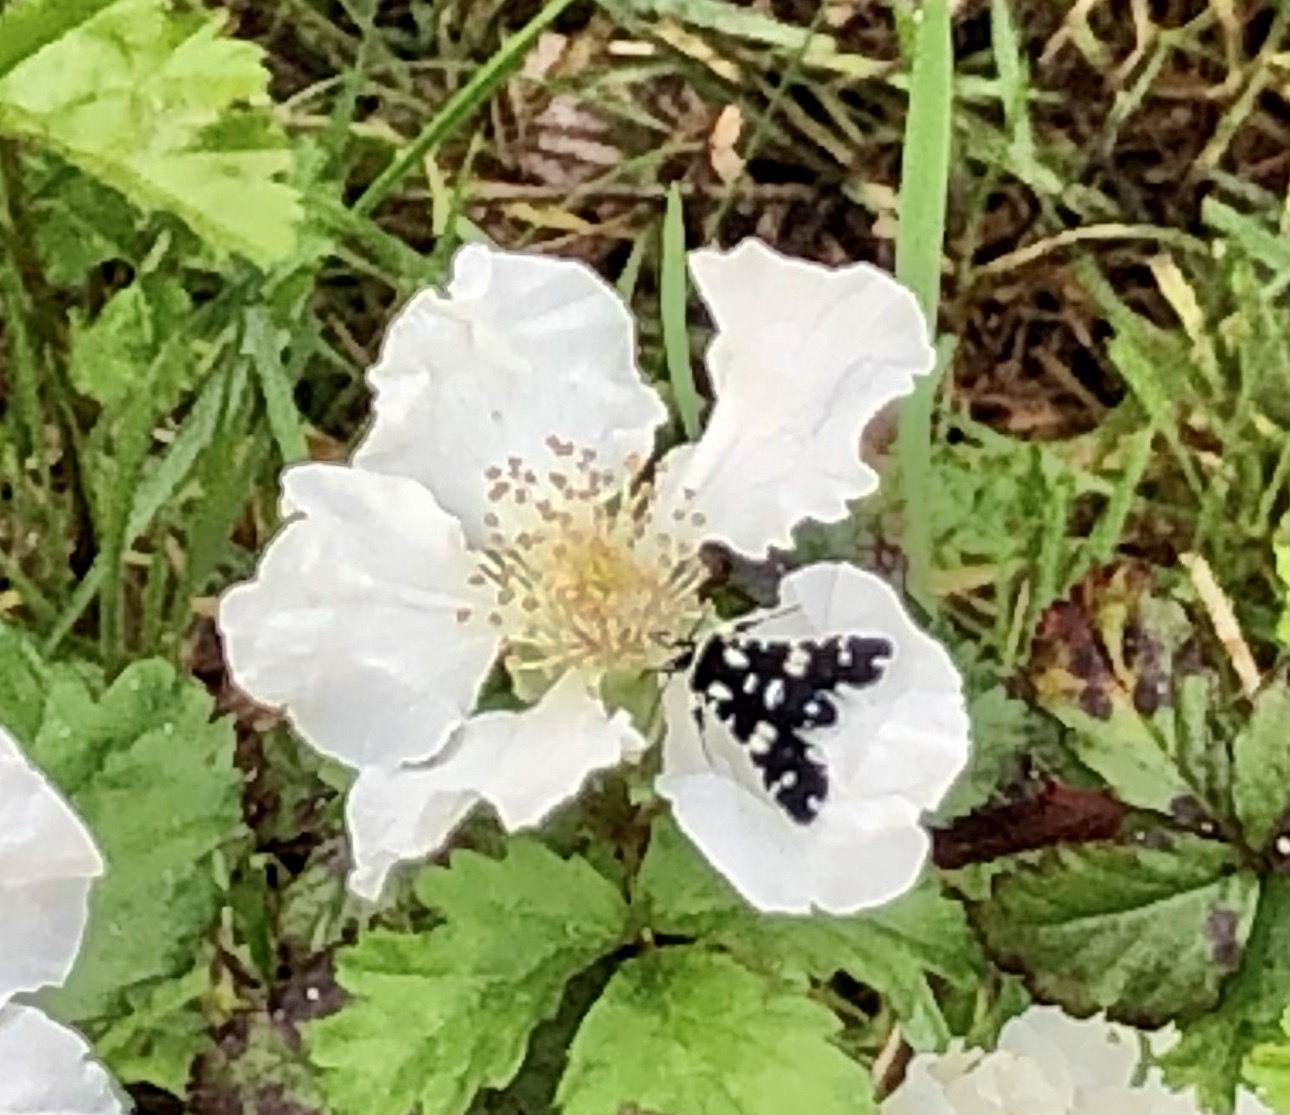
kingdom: Animalia
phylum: Arthropoda
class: Insecta
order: Lepidoptera
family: Thyrididae
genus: Pseudothyris
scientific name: Pseudothyris sepulchralis
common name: Mournful thyris moth
